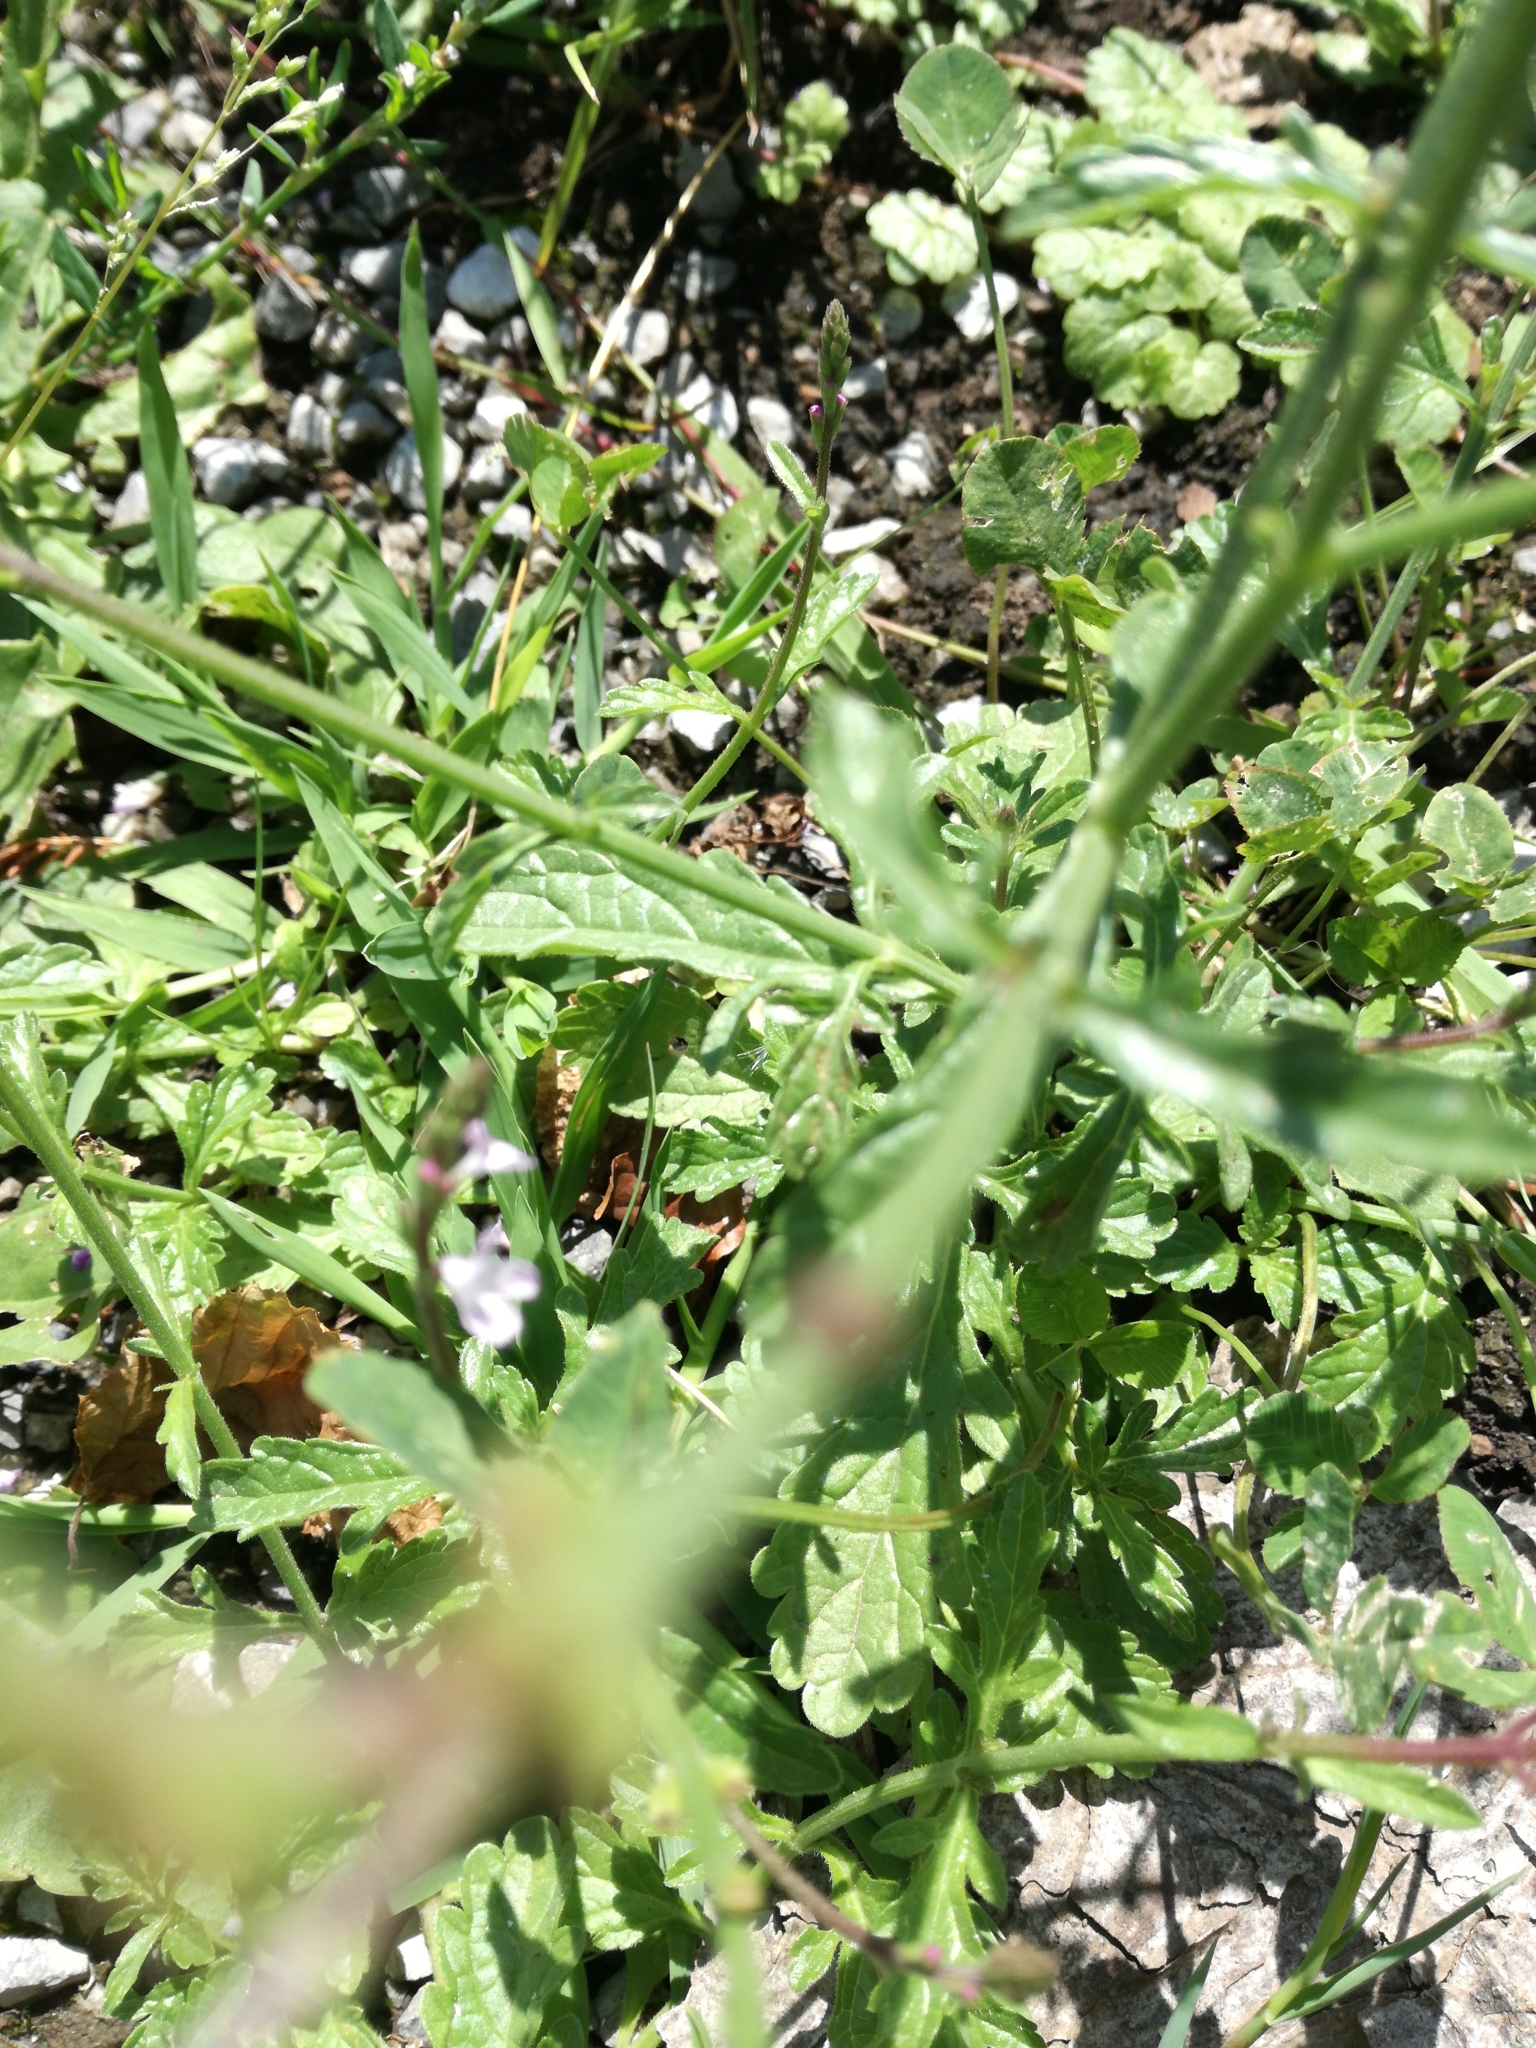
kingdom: Plantae
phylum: Tracheophyta
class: Magnoliopsida
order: Lamiales
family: Verbenaceae
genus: Verbena
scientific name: Verbena officinalis
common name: Vervain
